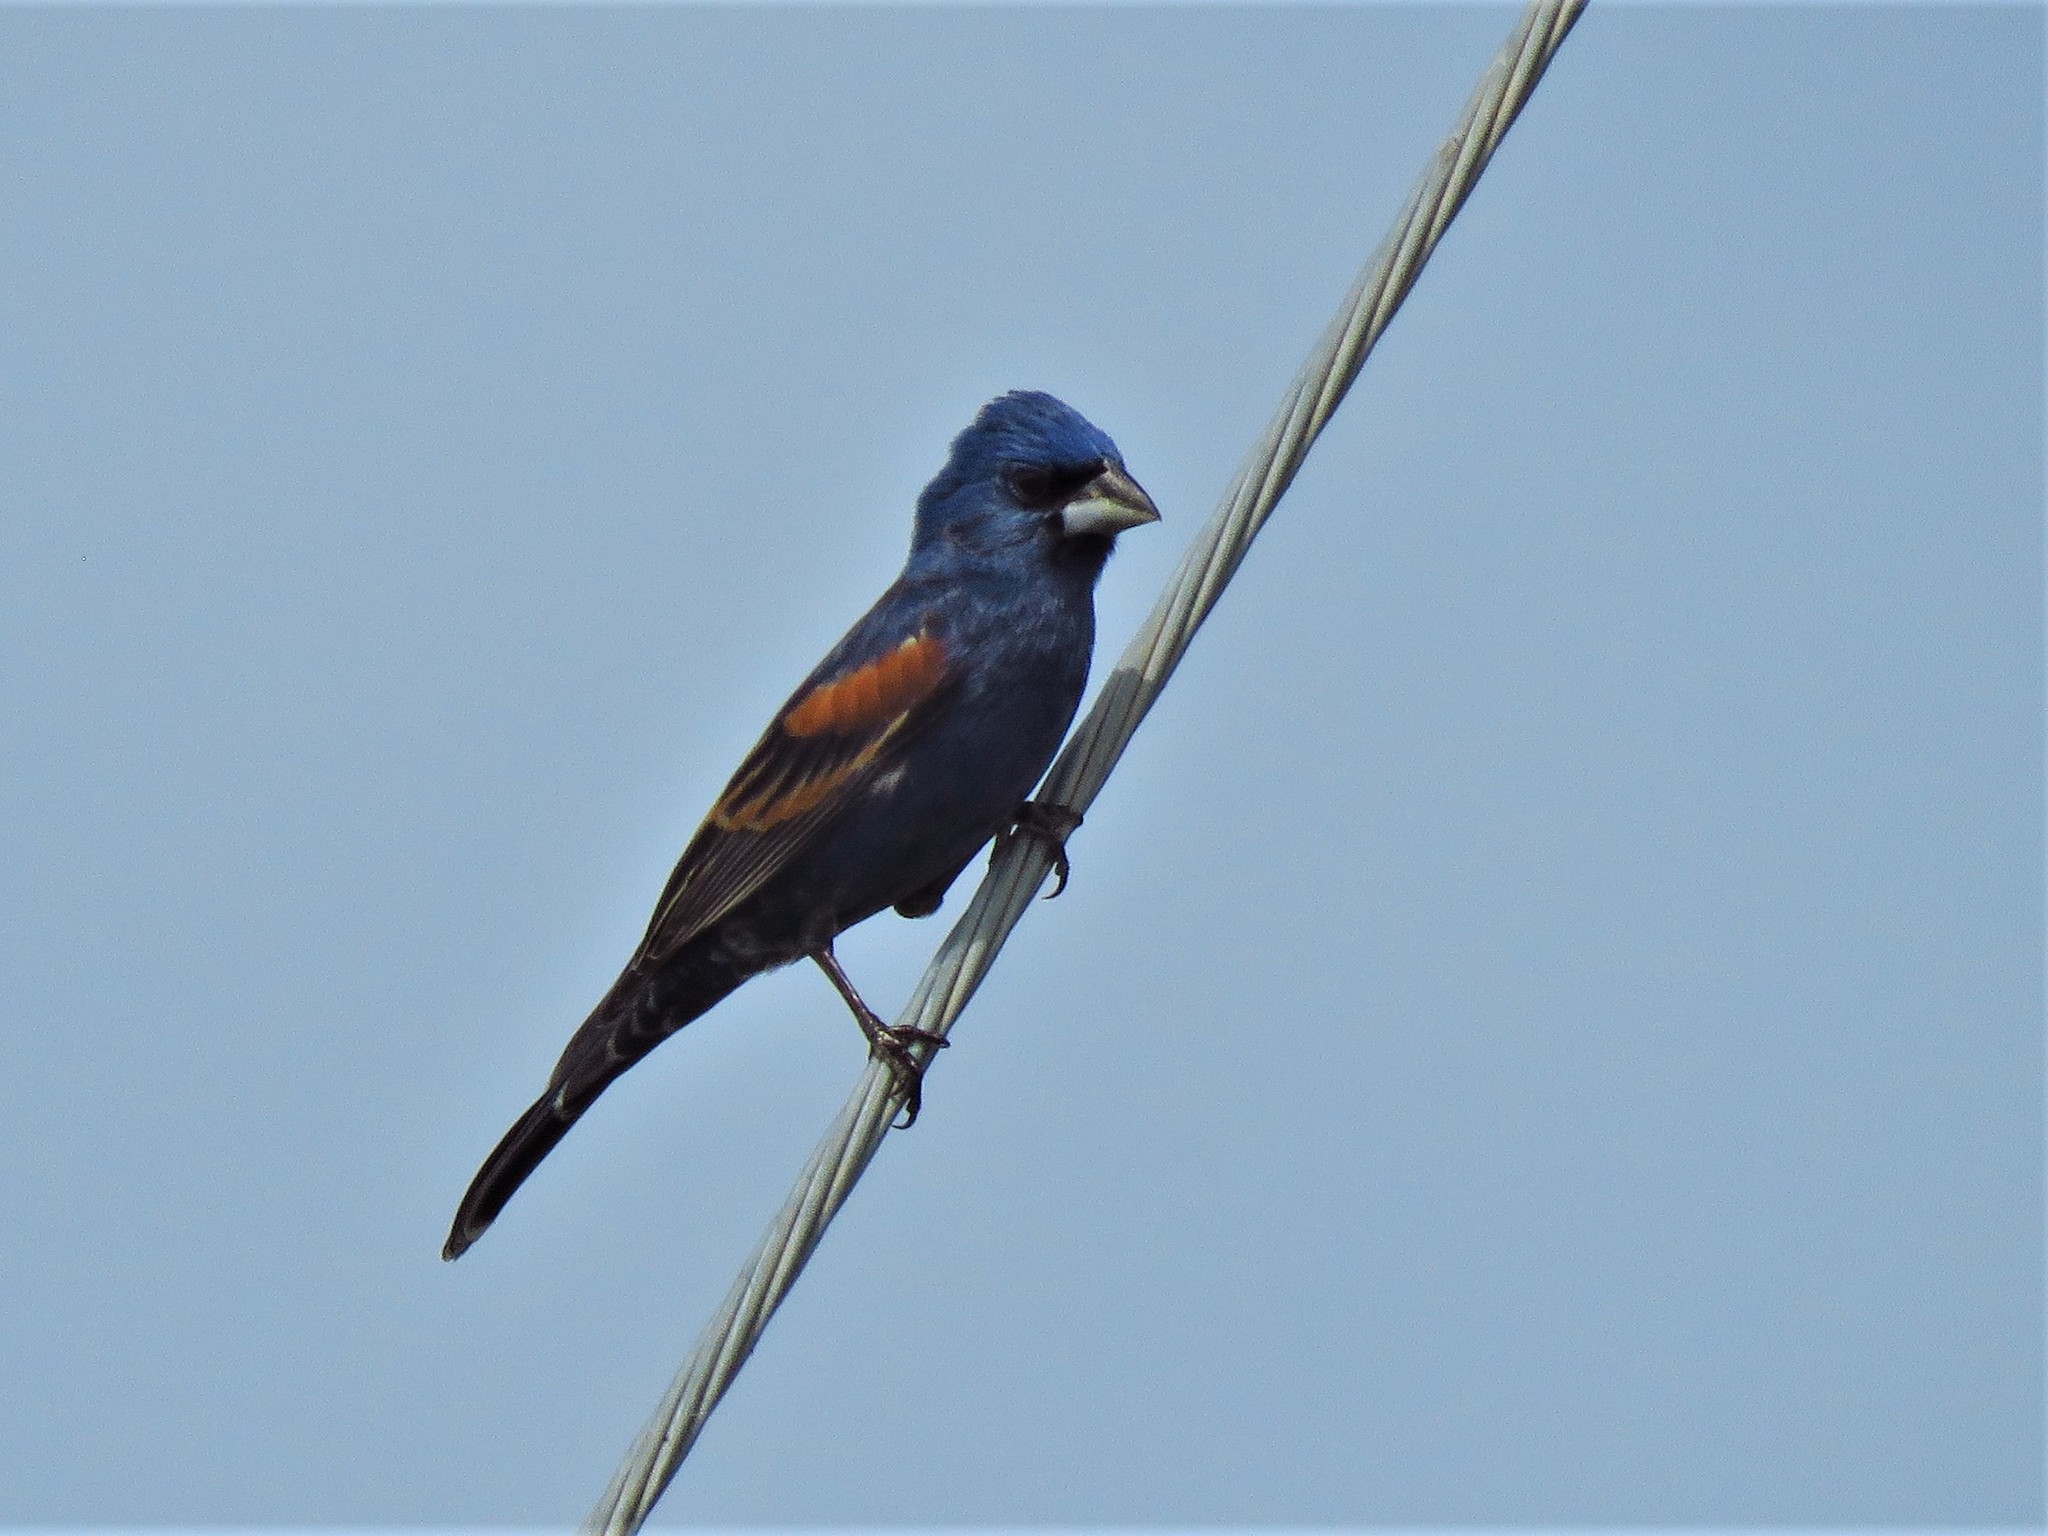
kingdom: Animalia
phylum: Chordata
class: Aves
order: Passeriformes
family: Cardinalidae
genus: Passerina
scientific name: Passerina caerulea
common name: Blue grosbeak
